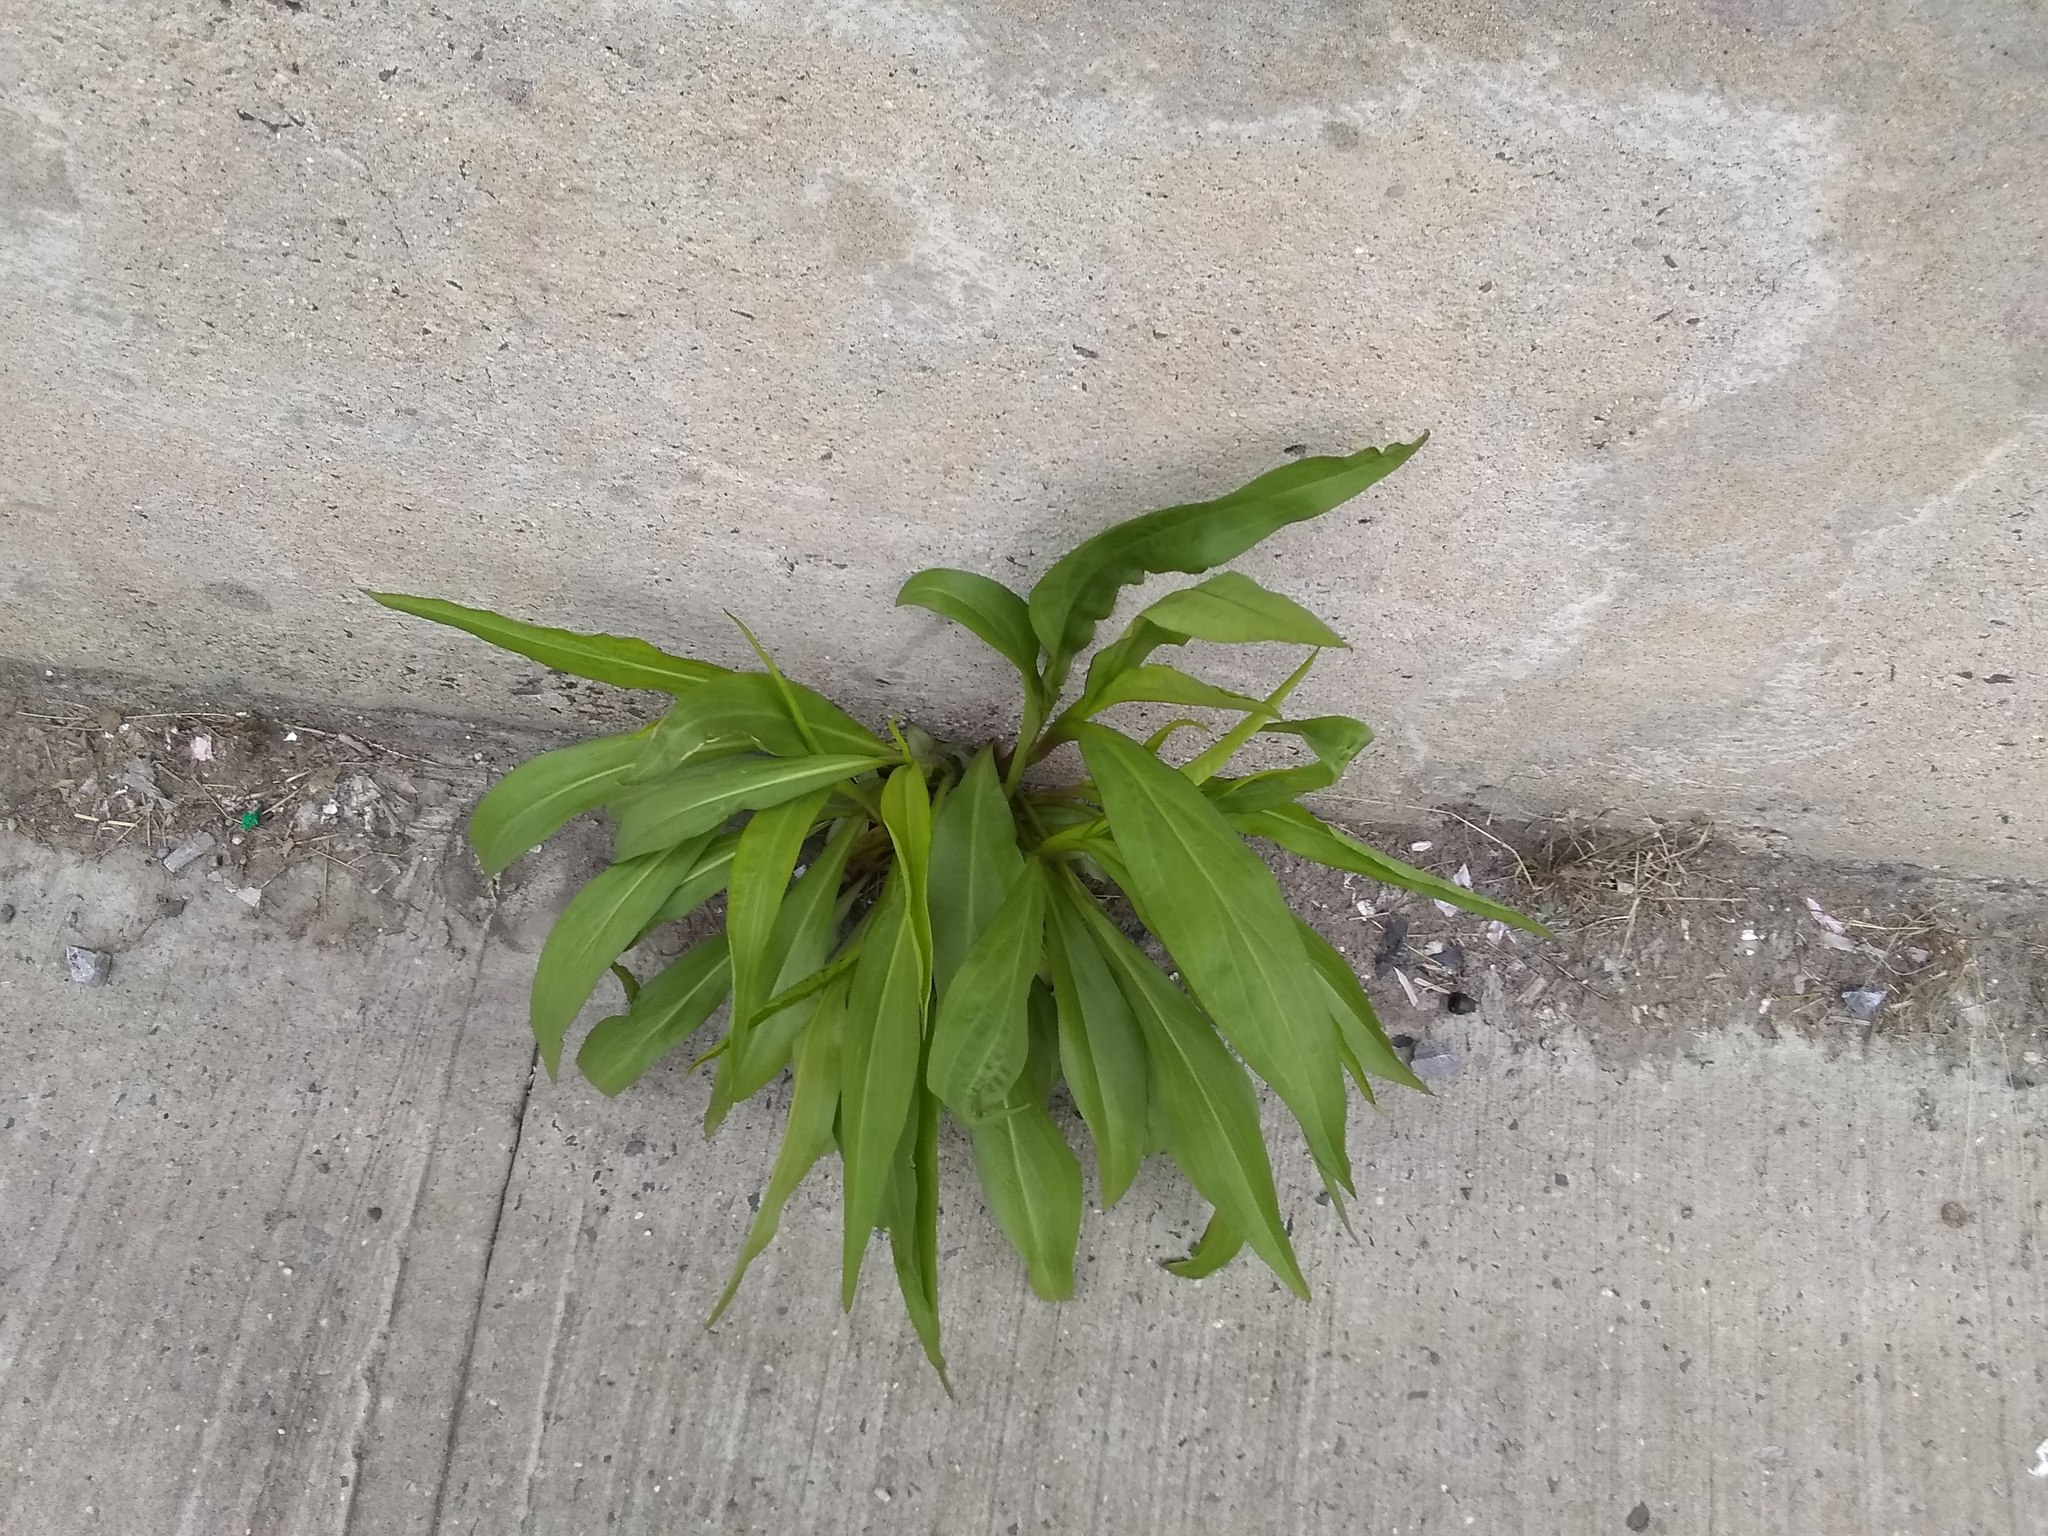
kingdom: Plantae
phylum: Tracheophyta
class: Magnoliopsida
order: Asterales
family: Asteraceae
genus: Solidago
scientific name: Solidago sempervirens
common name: Salt-marsh goldenrod
